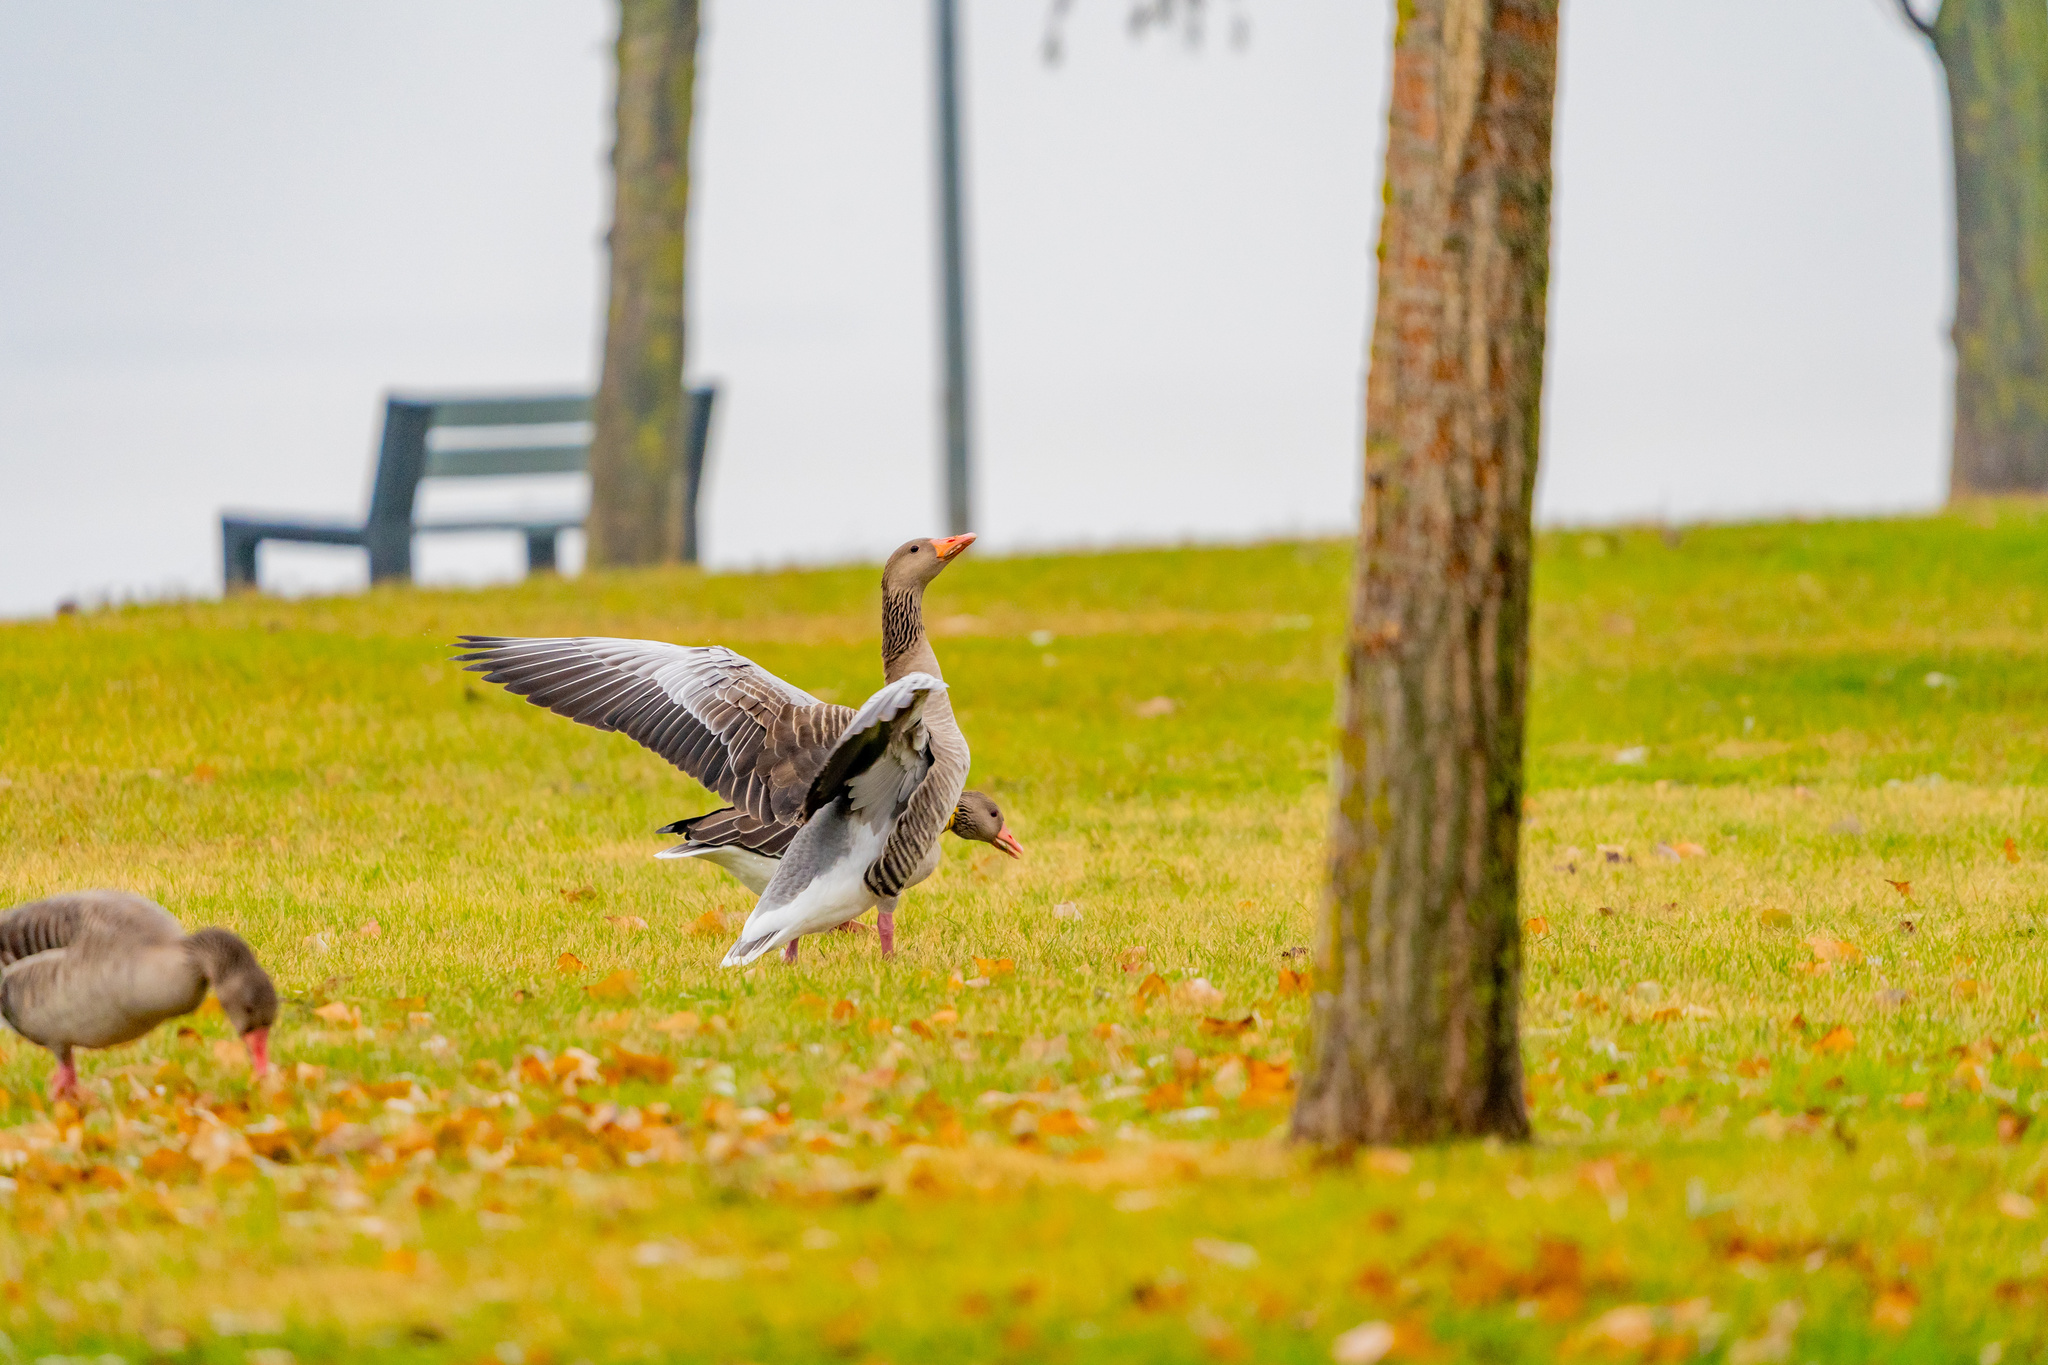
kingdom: Animalia
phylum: Chordata
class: Aves
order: Anseriformes
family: Anatidae
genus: Anser
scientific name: Anser anser
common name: Greylag goose
